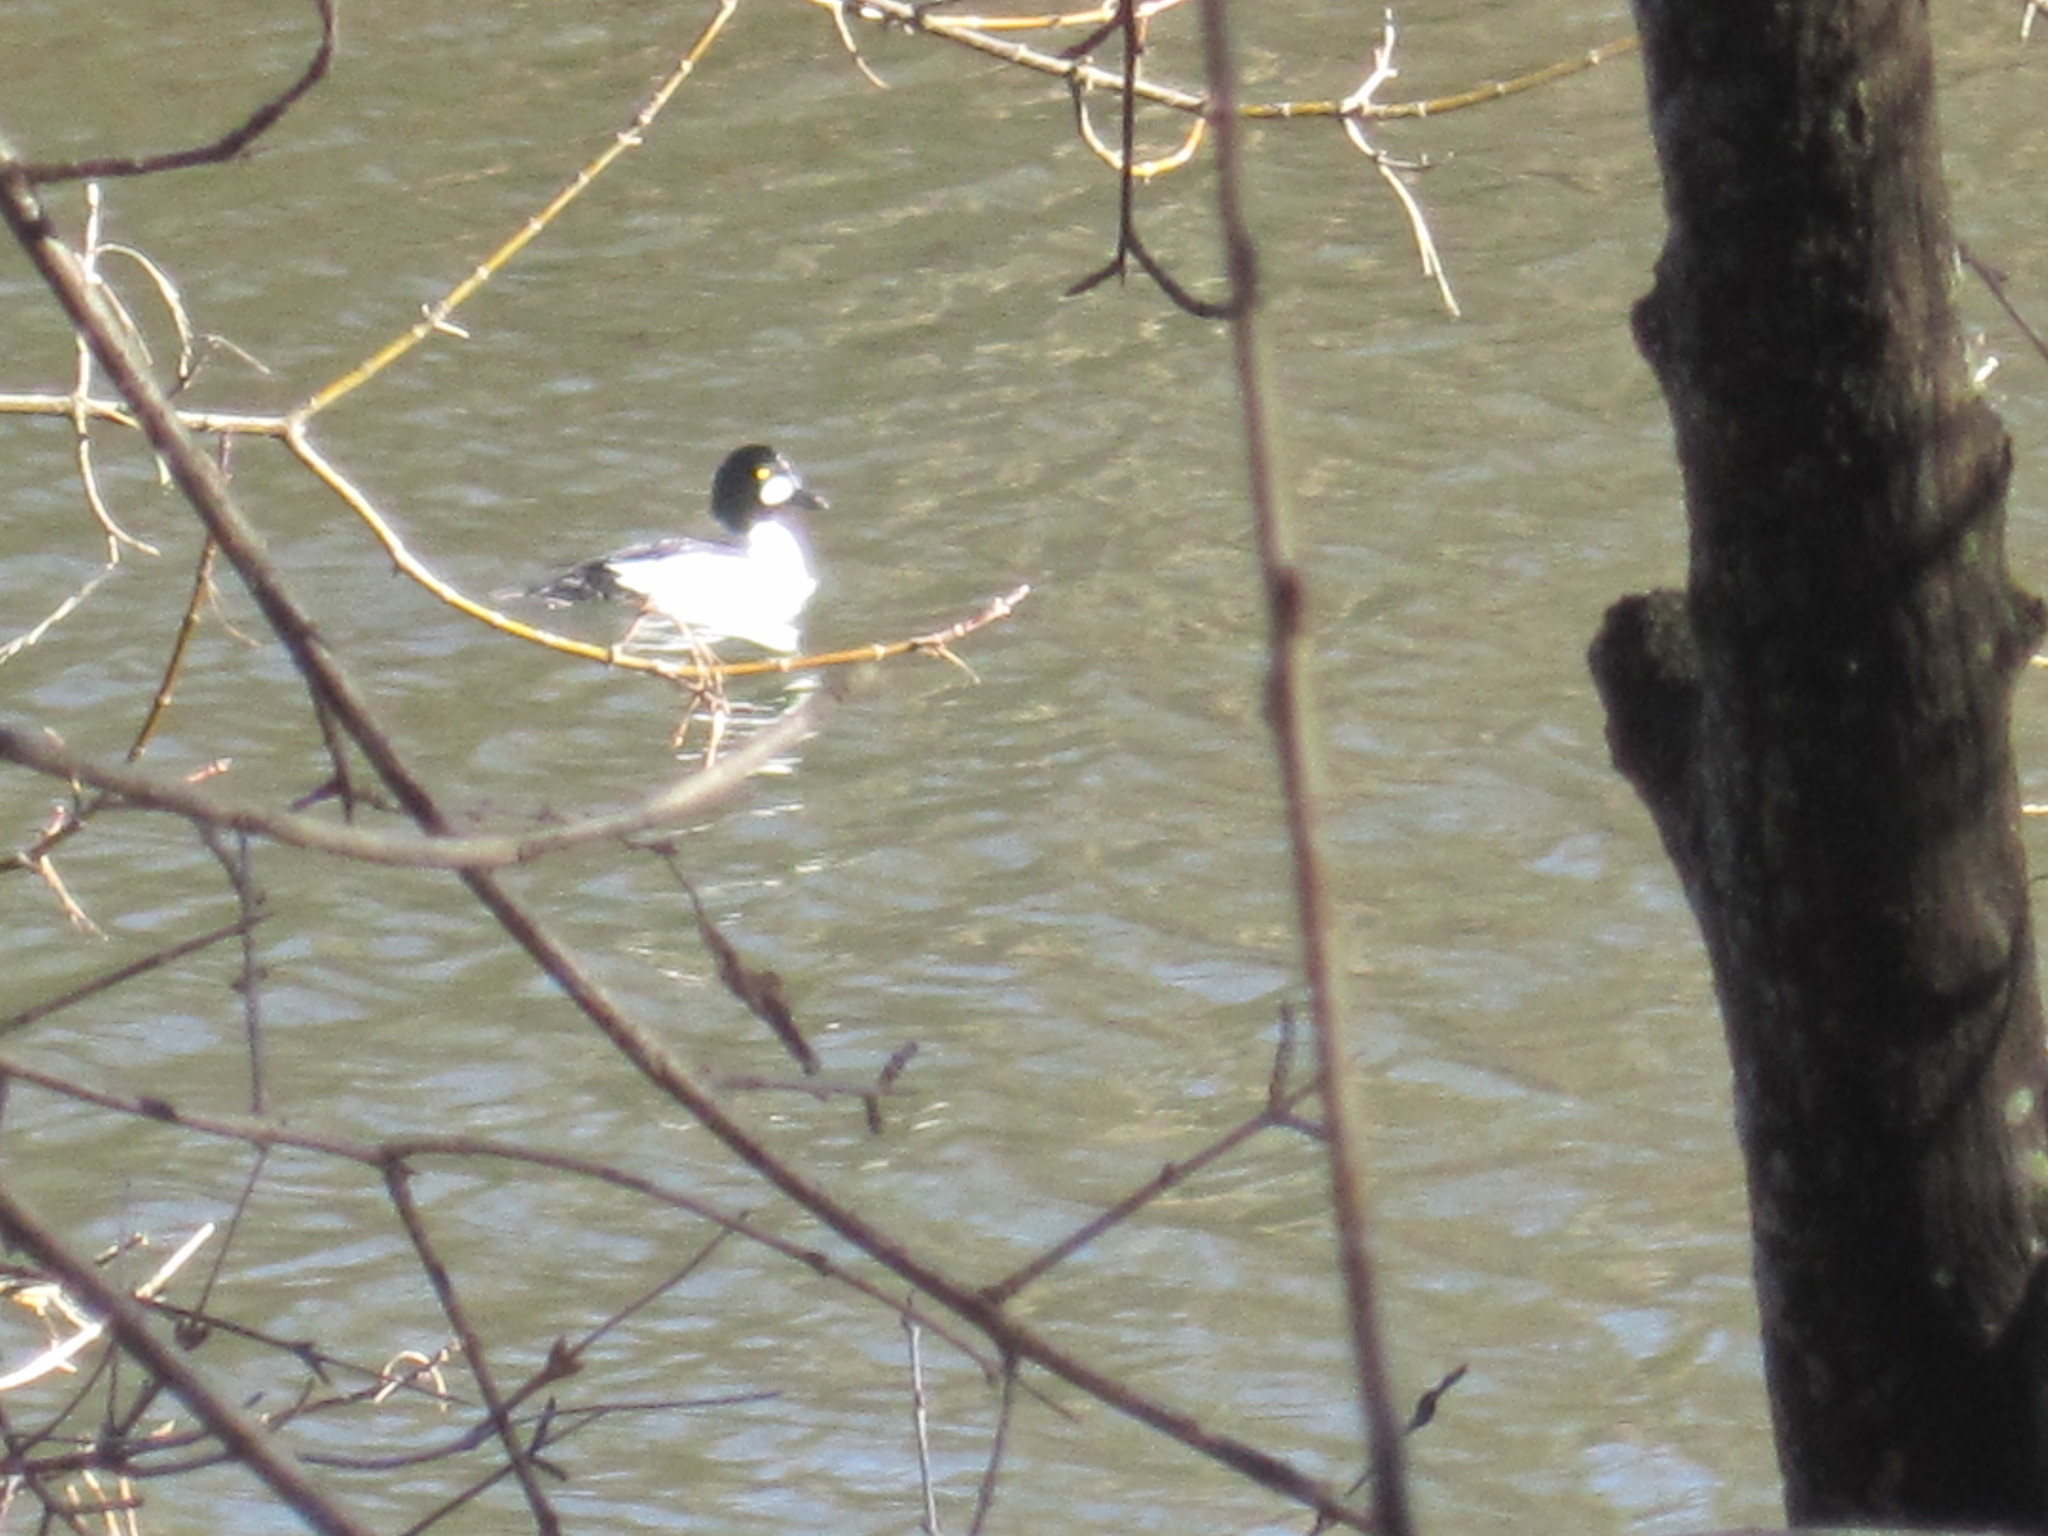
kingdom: Animalia
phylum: Chordata
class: Aves
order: Anseriformes
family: Anatidae
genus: Bucephala
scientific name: Bucephala clangula
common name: Common goldeneye
